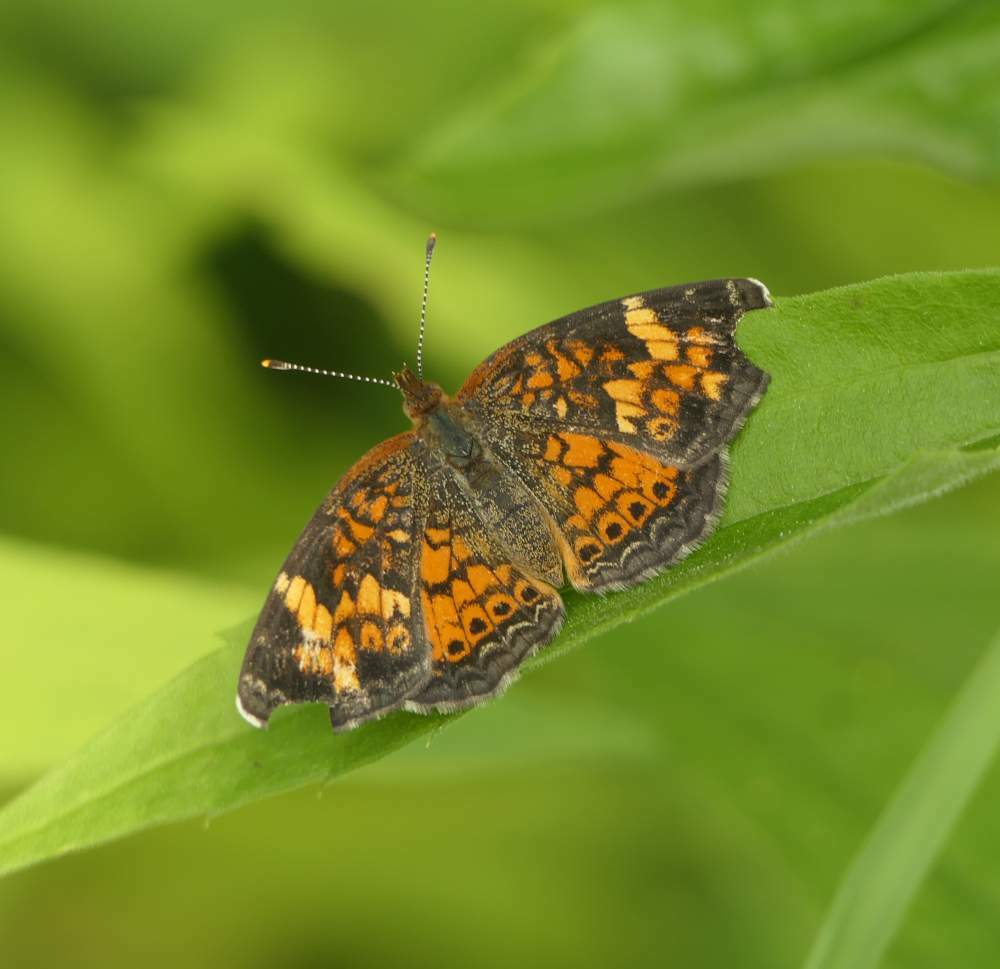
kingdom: Animalia
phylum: Arthropoda
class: Insecta
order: Lepidoptera
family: Nymphalidae
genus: Phyciodes
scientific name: Phyciodes tharos
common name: Pearl crescent
